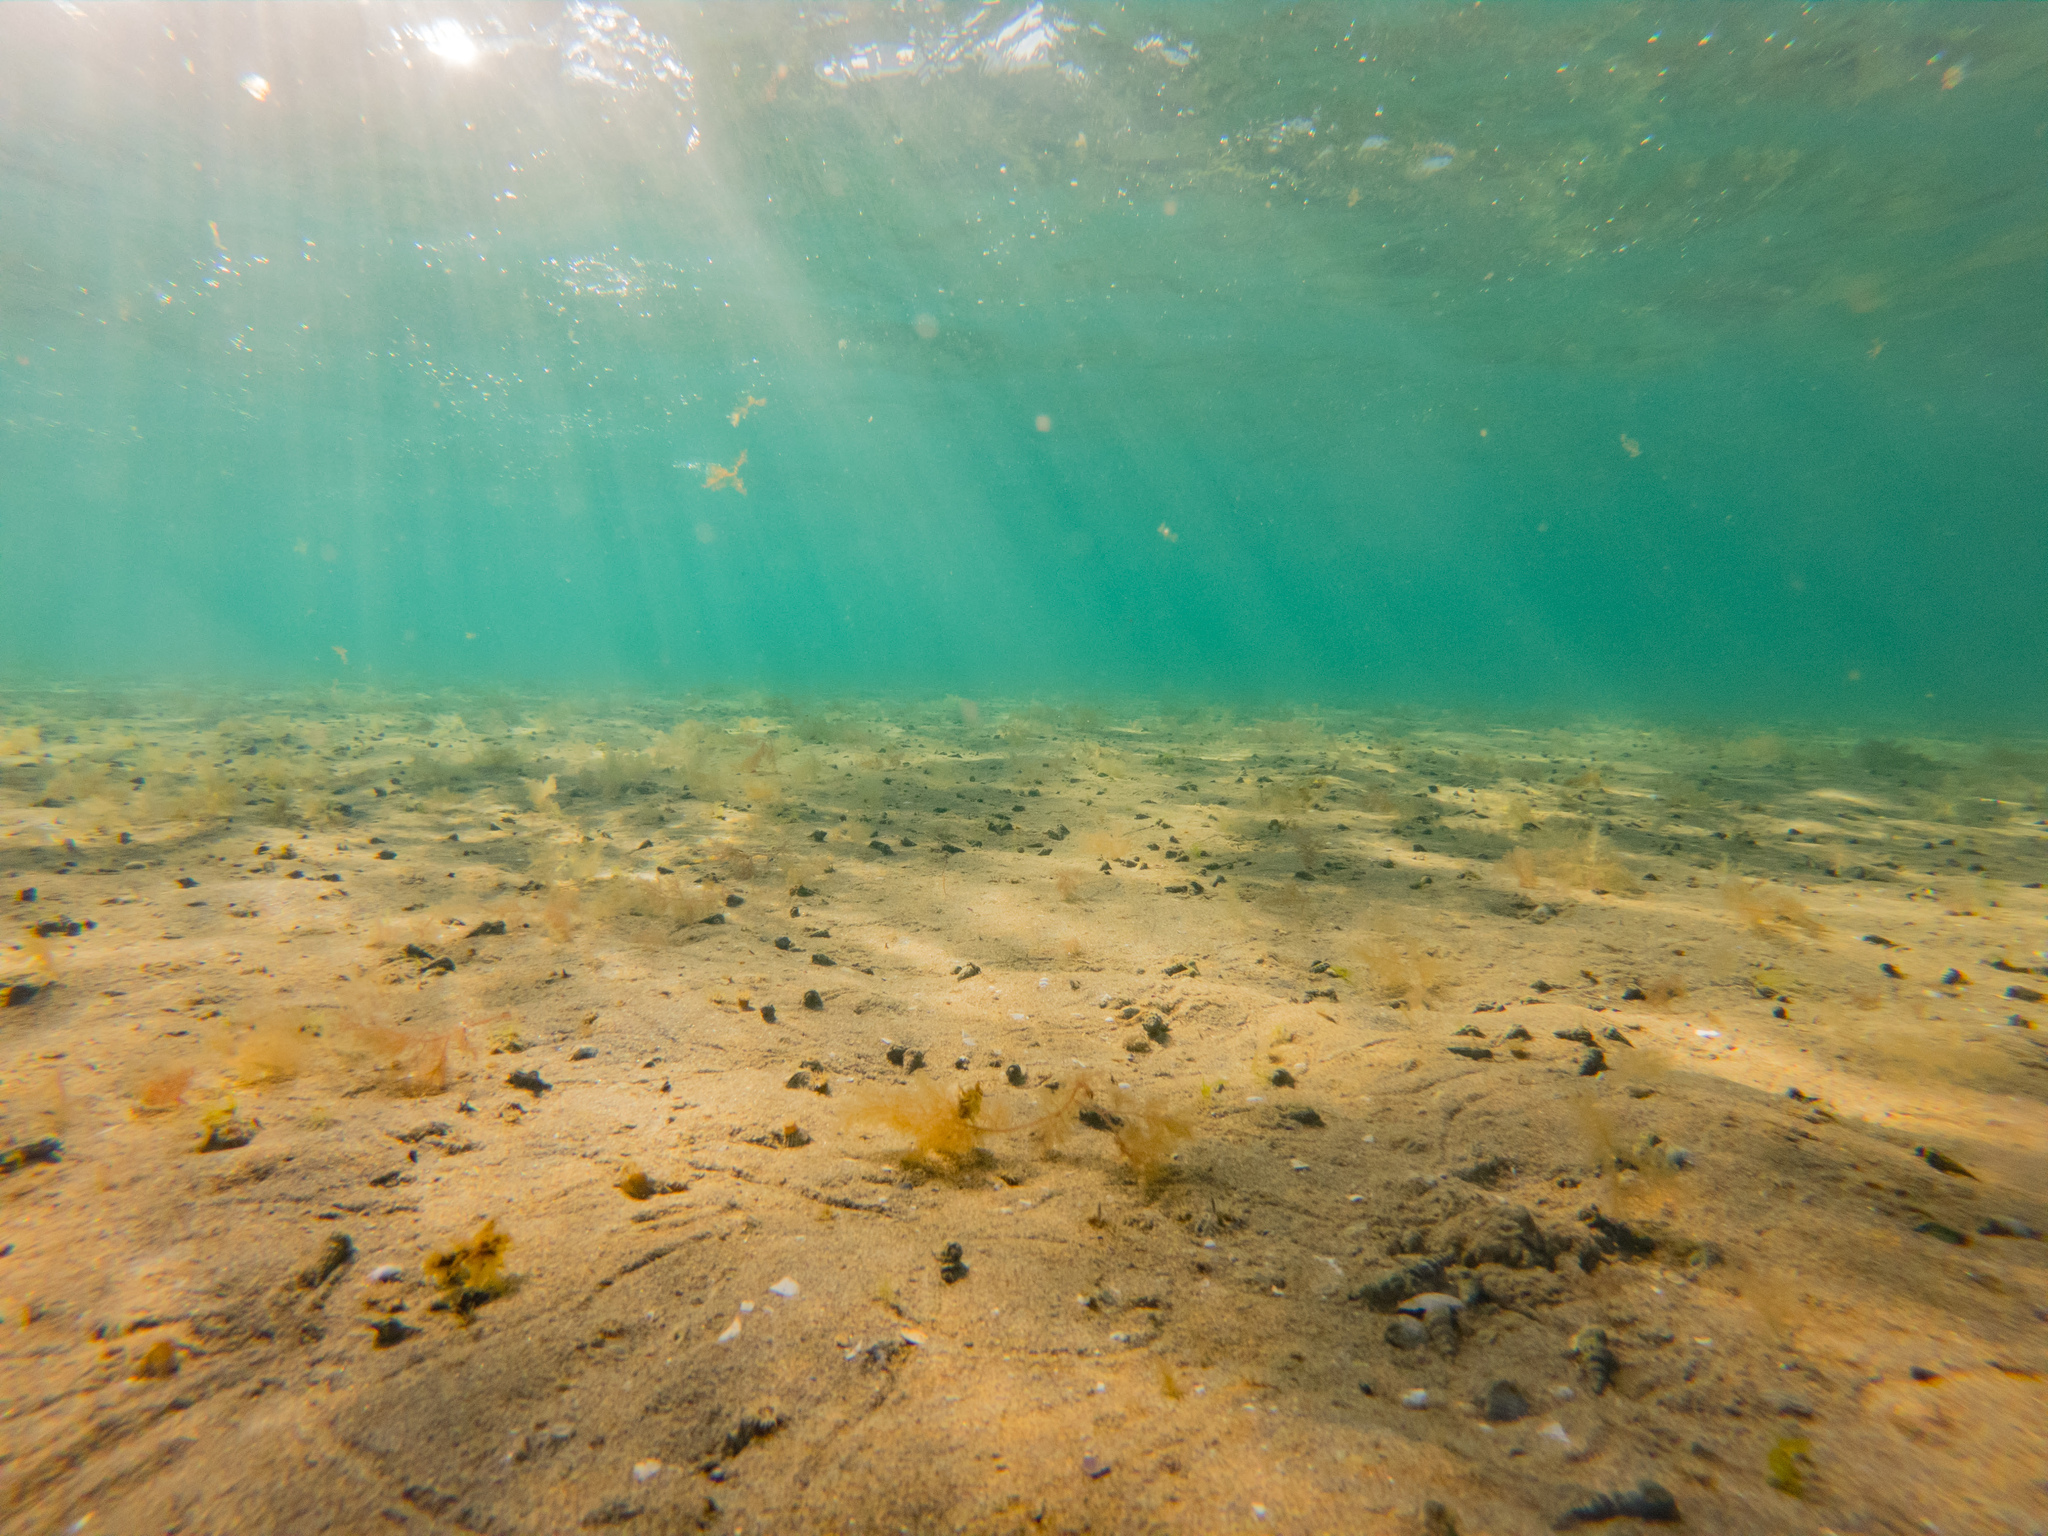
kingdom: Animalia
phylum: Mollusca
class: Gastropoda
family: Batillariidae
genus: Zeacumantus
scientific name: Zeacumantus lutulentus
